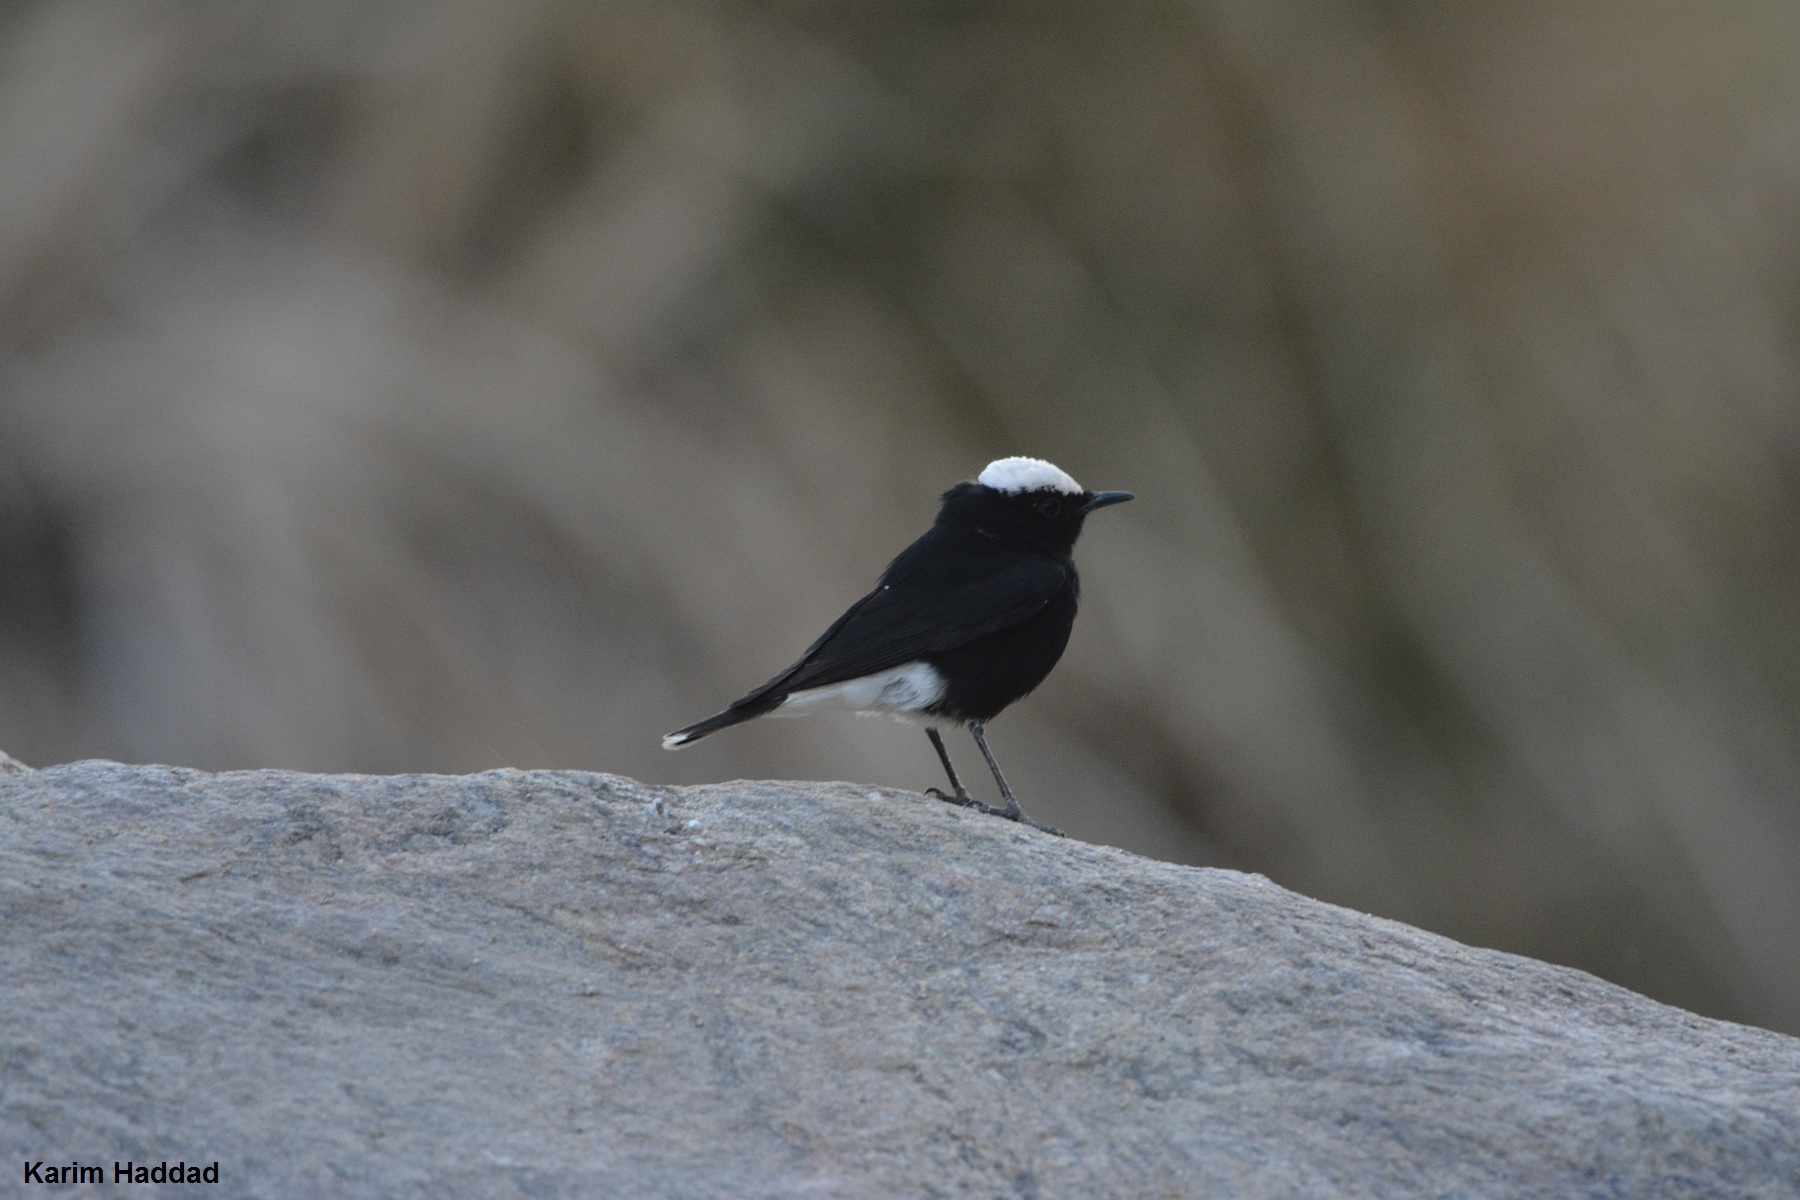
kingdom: Animalia
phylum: Chordata
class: Aves
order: Passeriformes
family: Muscicapidae
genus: Oenanthe
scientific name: Oenanthe leucopyga
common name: White-crowned wheatear
